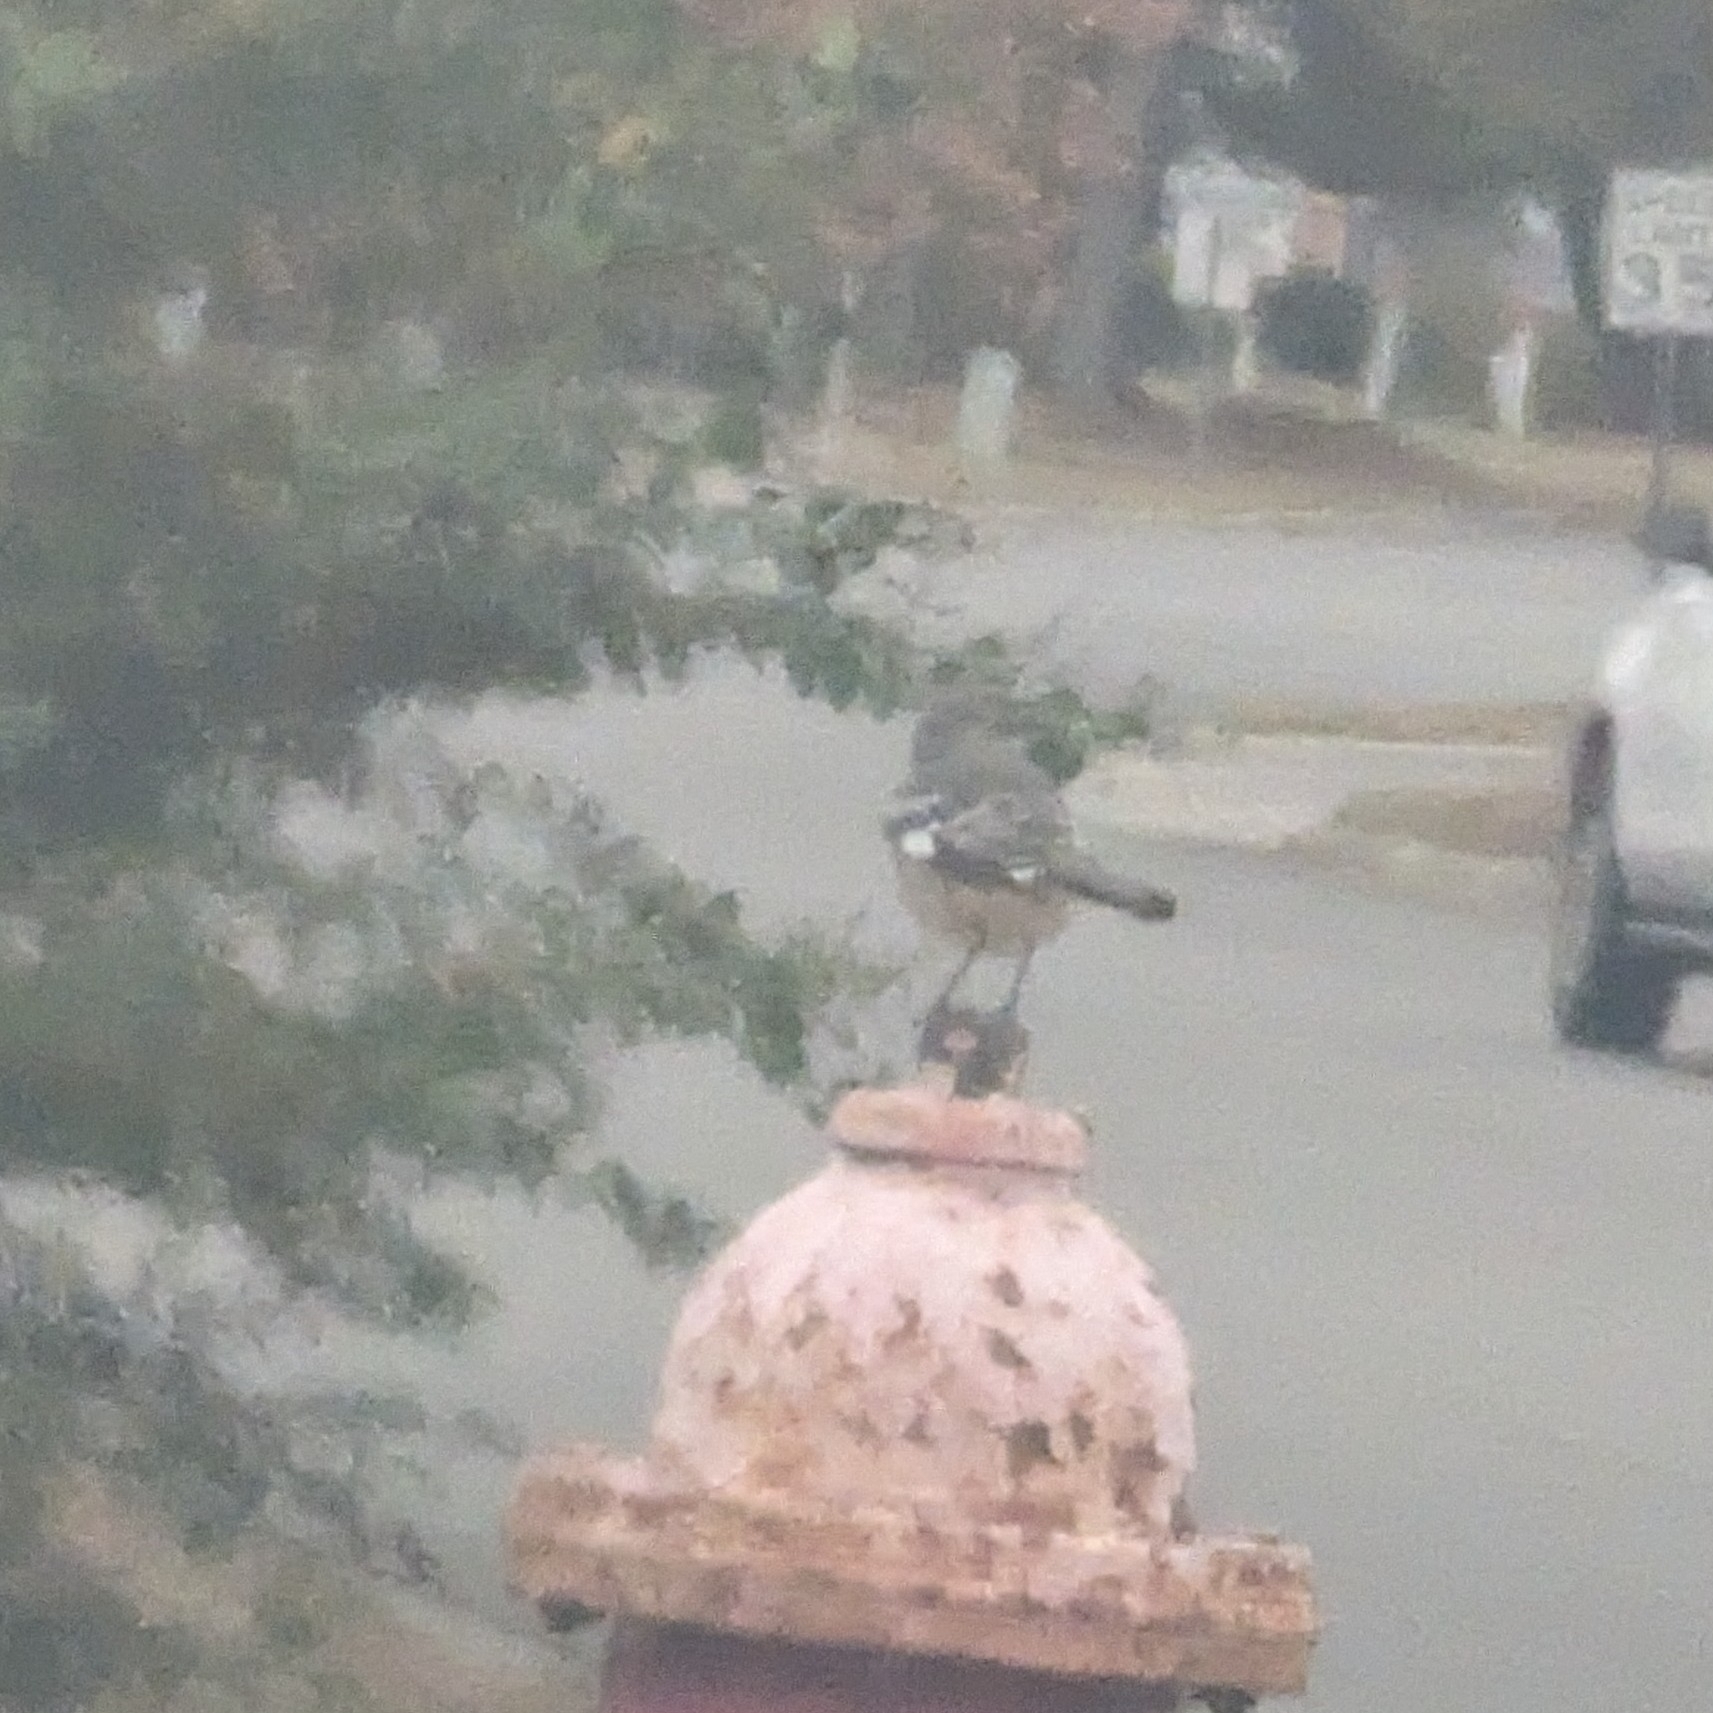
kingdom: Animalia
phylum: Chordata
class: Aves
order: Passeriformes
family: Mimidae
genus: Mimus
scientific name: Mimus polyglottos
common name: Northern mockingbird
